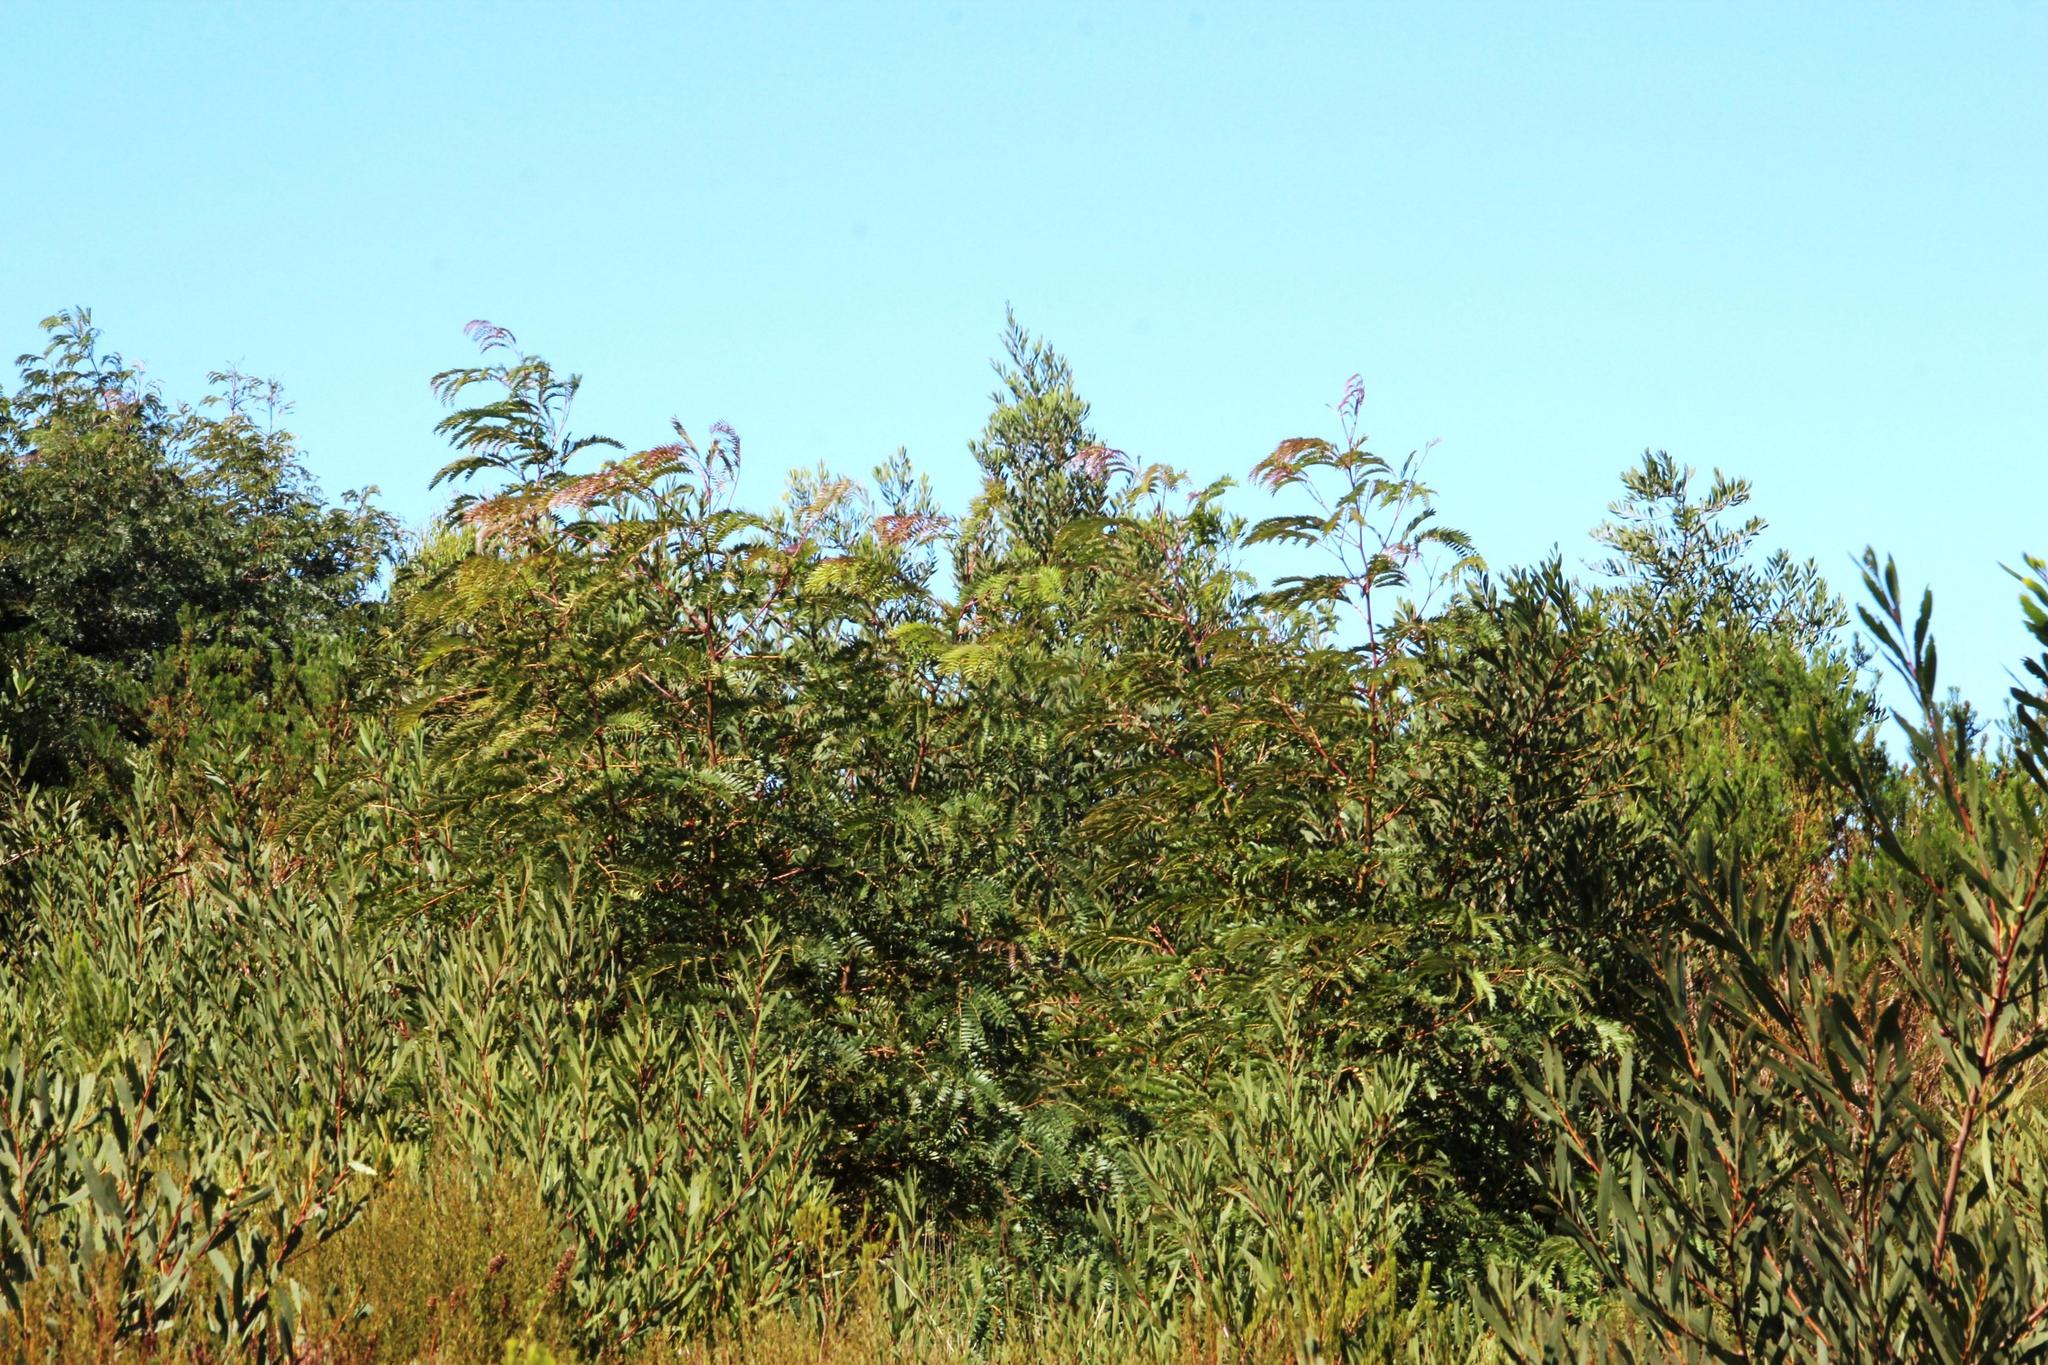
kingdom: Plantae
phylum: Tracheophyta
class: Magnoliopsida
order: Fabales
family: Fabaceae
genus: Acacia
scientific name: Acacia elata
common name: Cedar wattle
